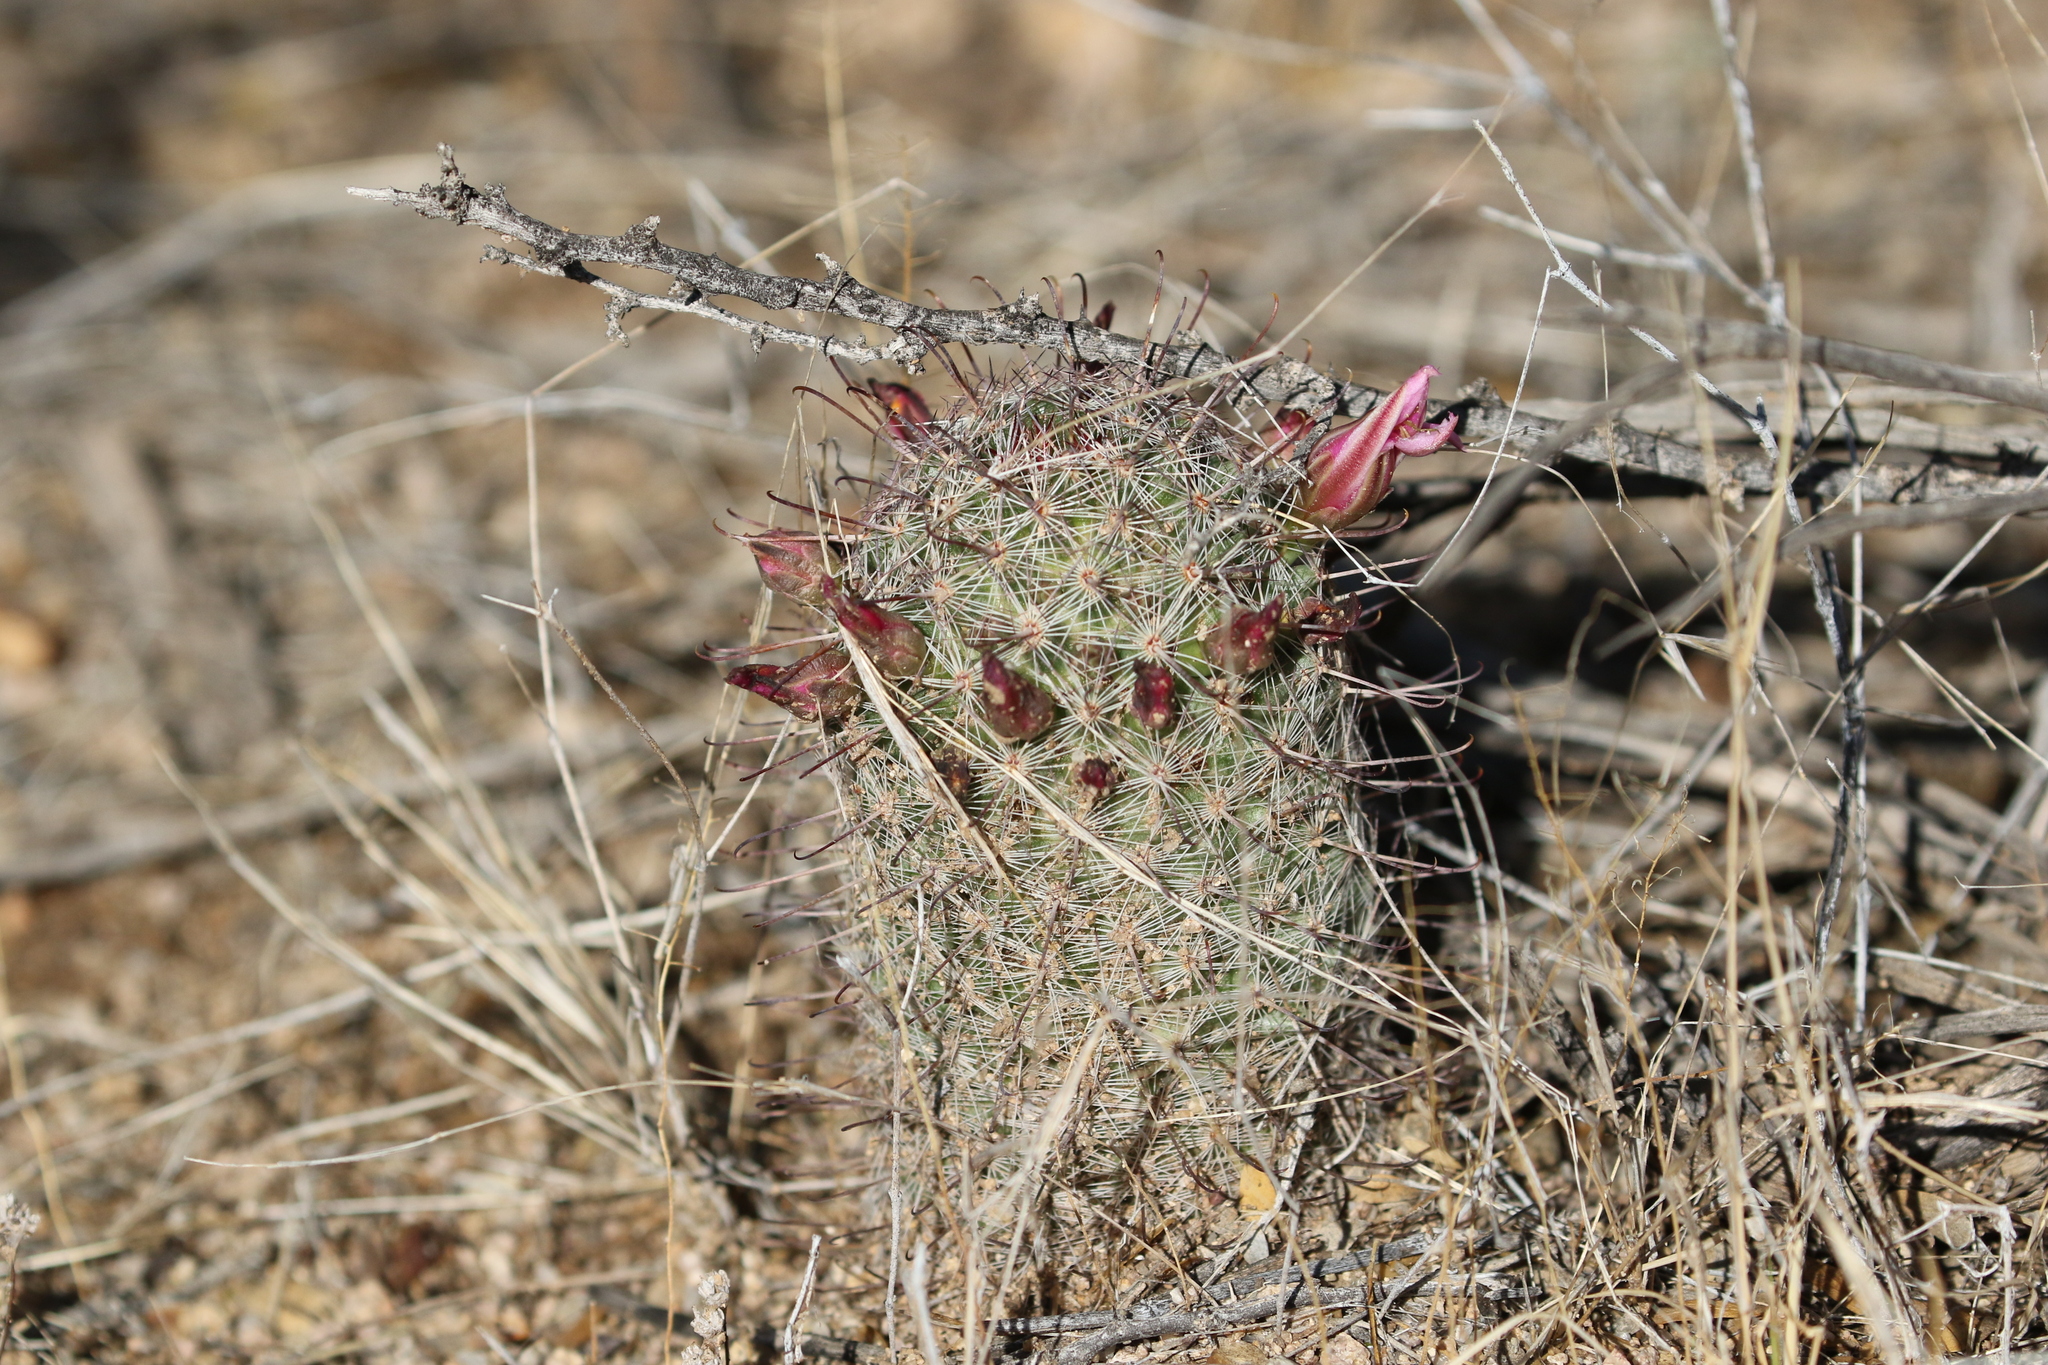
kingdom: Plantae
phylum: Tracheophyta
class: Magnoliopsida
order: Caryophyllales
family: Cactaceae
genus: Cochemiea
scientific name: Cochemiea grahamii
